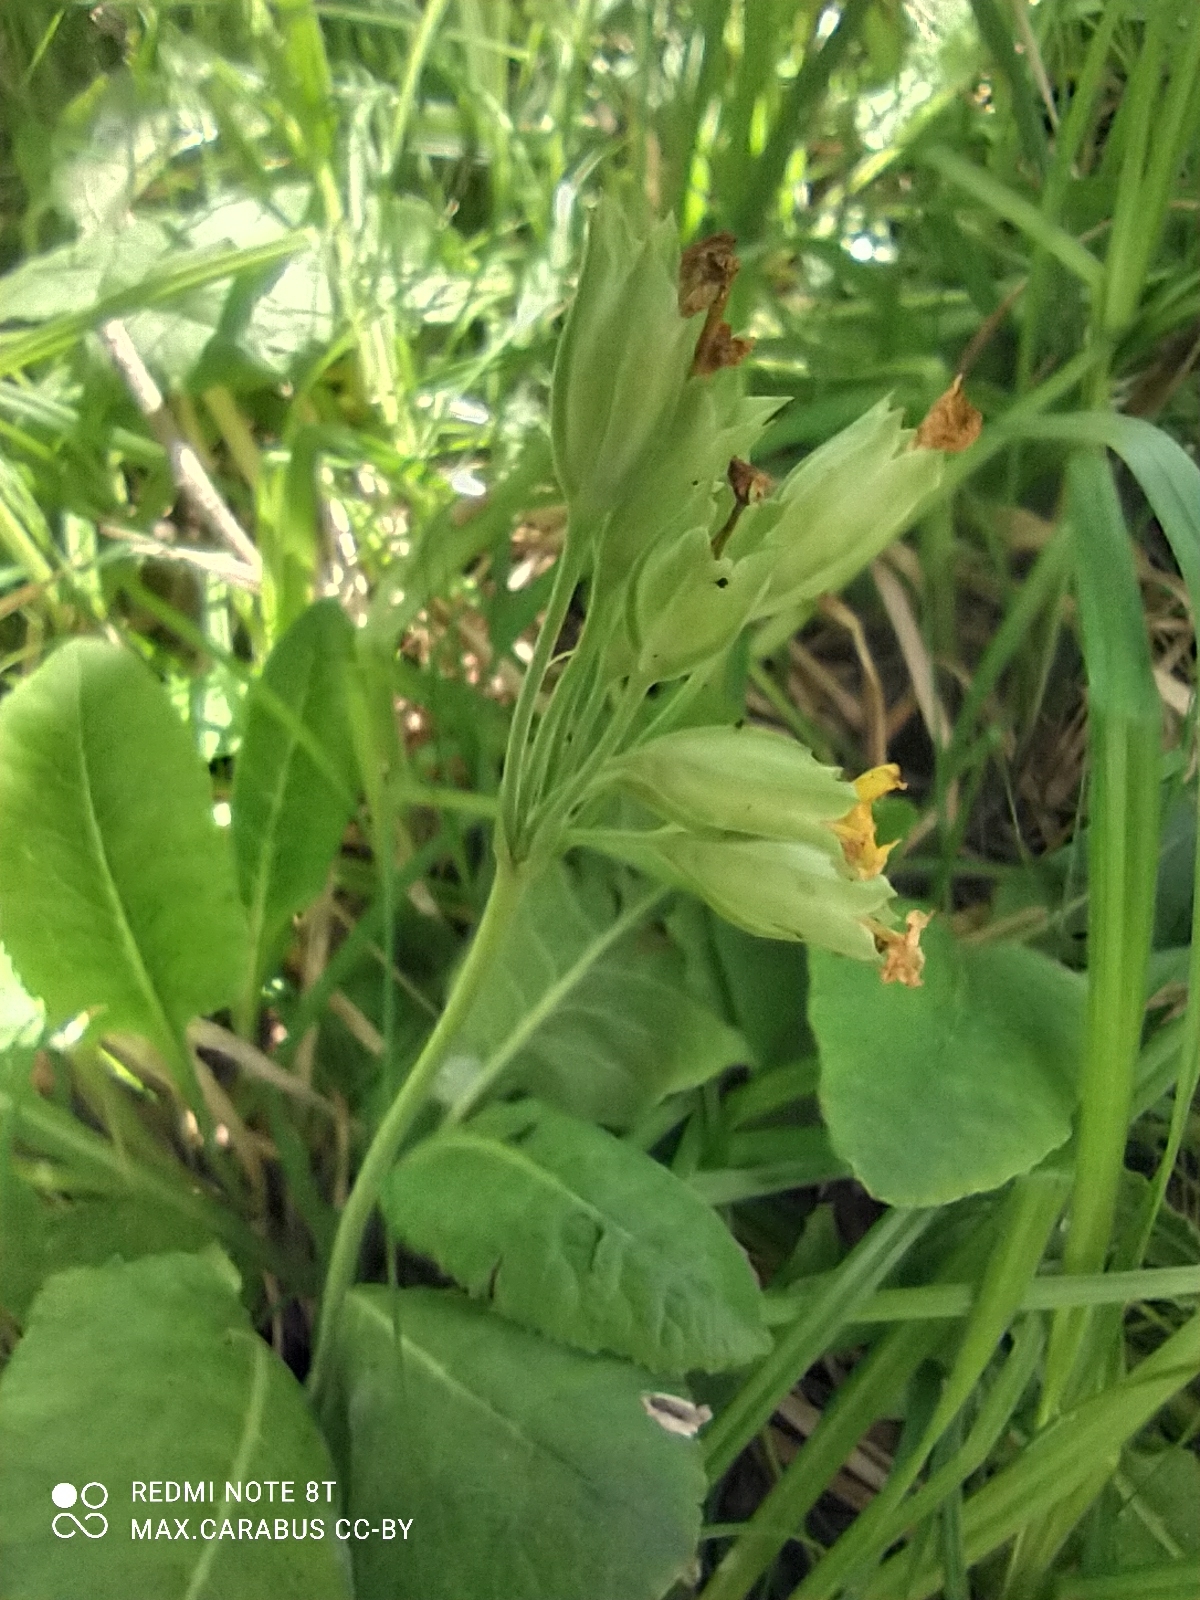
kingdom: Plantae
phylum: Tracheophyta
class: Magnoliopsida
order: Ericales
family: Primulaceae
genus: Primula
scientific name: Primula veris
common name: Cowslip
